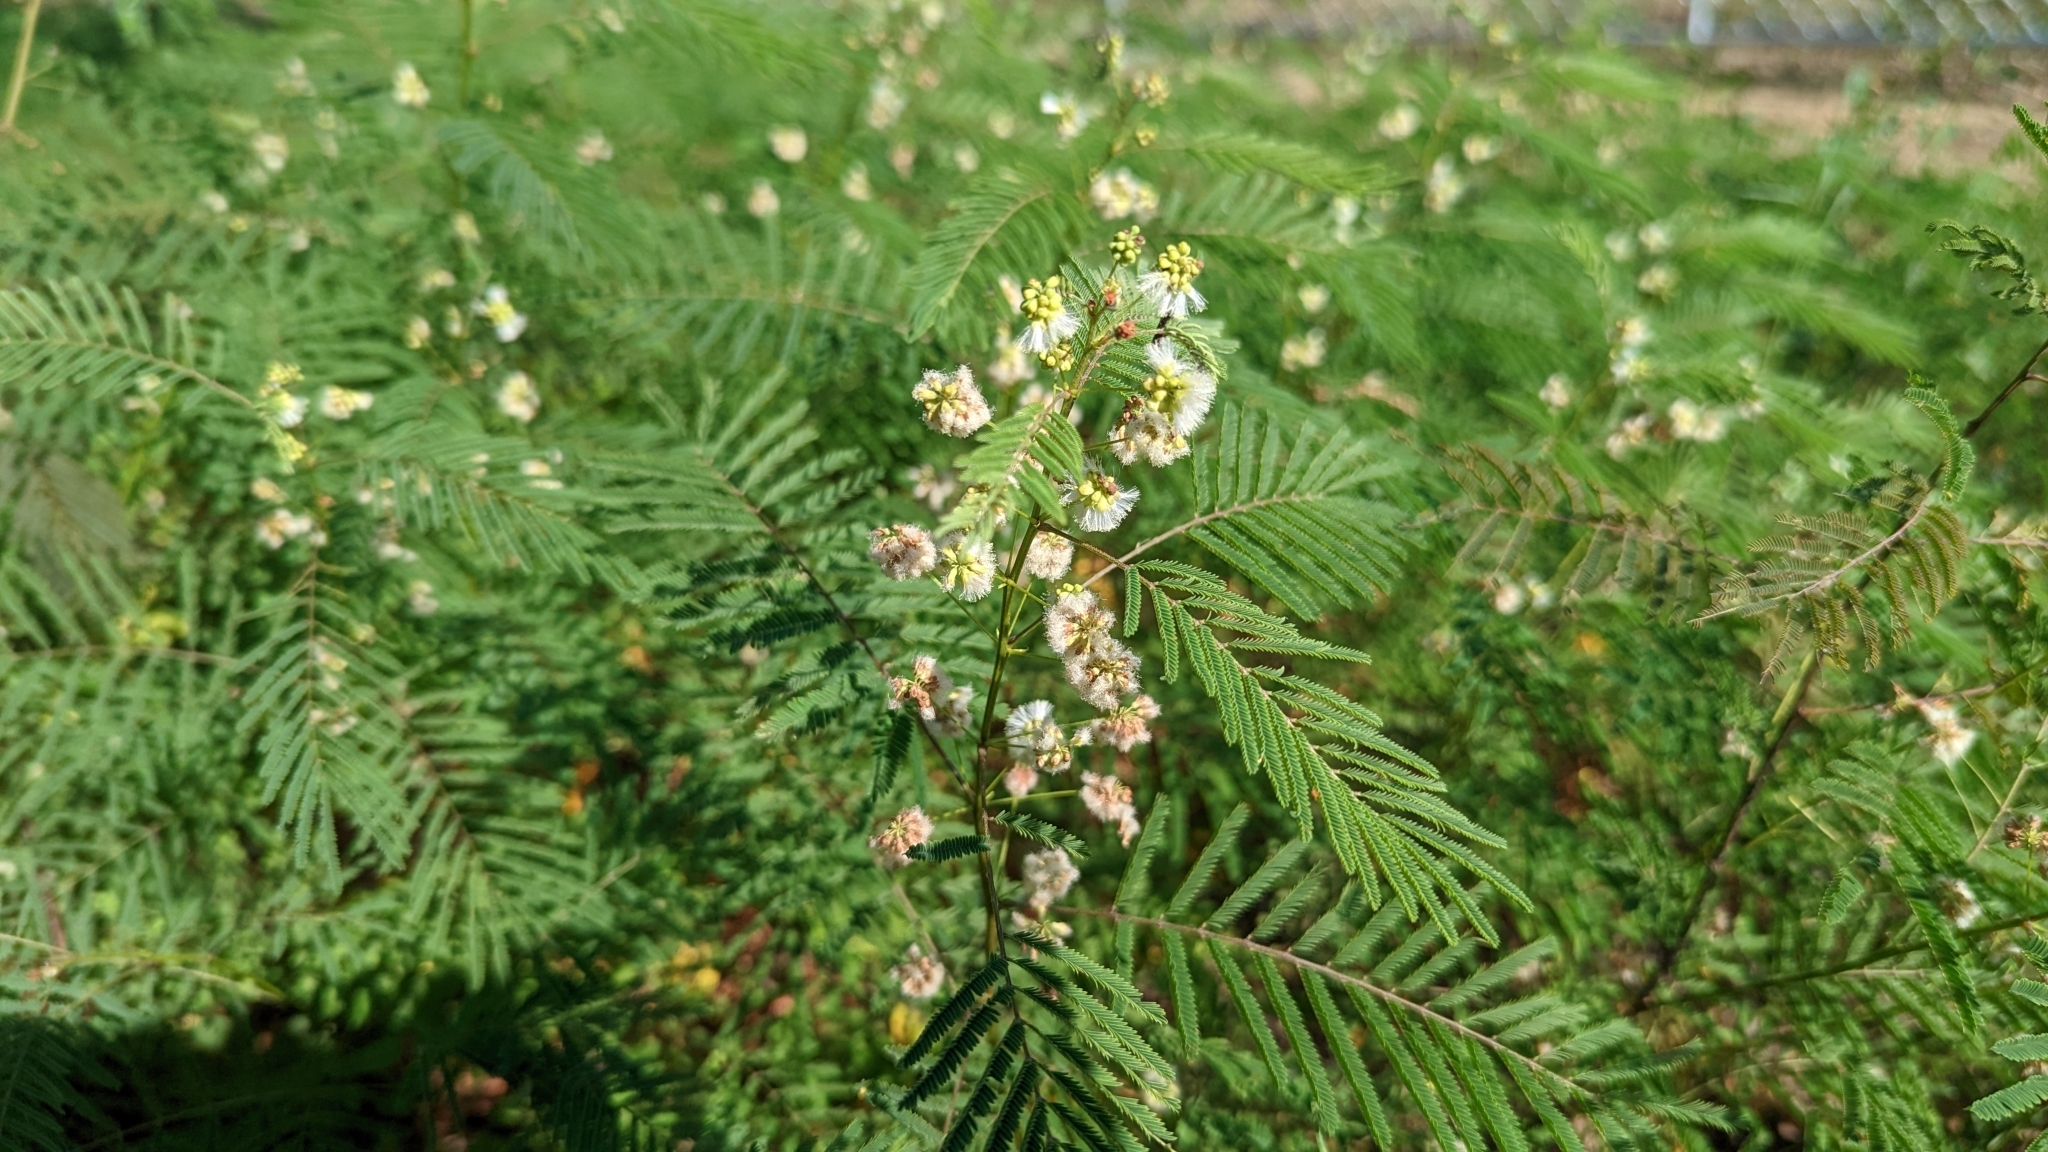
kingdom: Plantae
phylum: Tracheophyta
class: Magnoliopsida
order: Fabales
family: Fabaceae
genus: Acaciella
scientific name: Acaciella angustissima
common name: Prairie acacia
